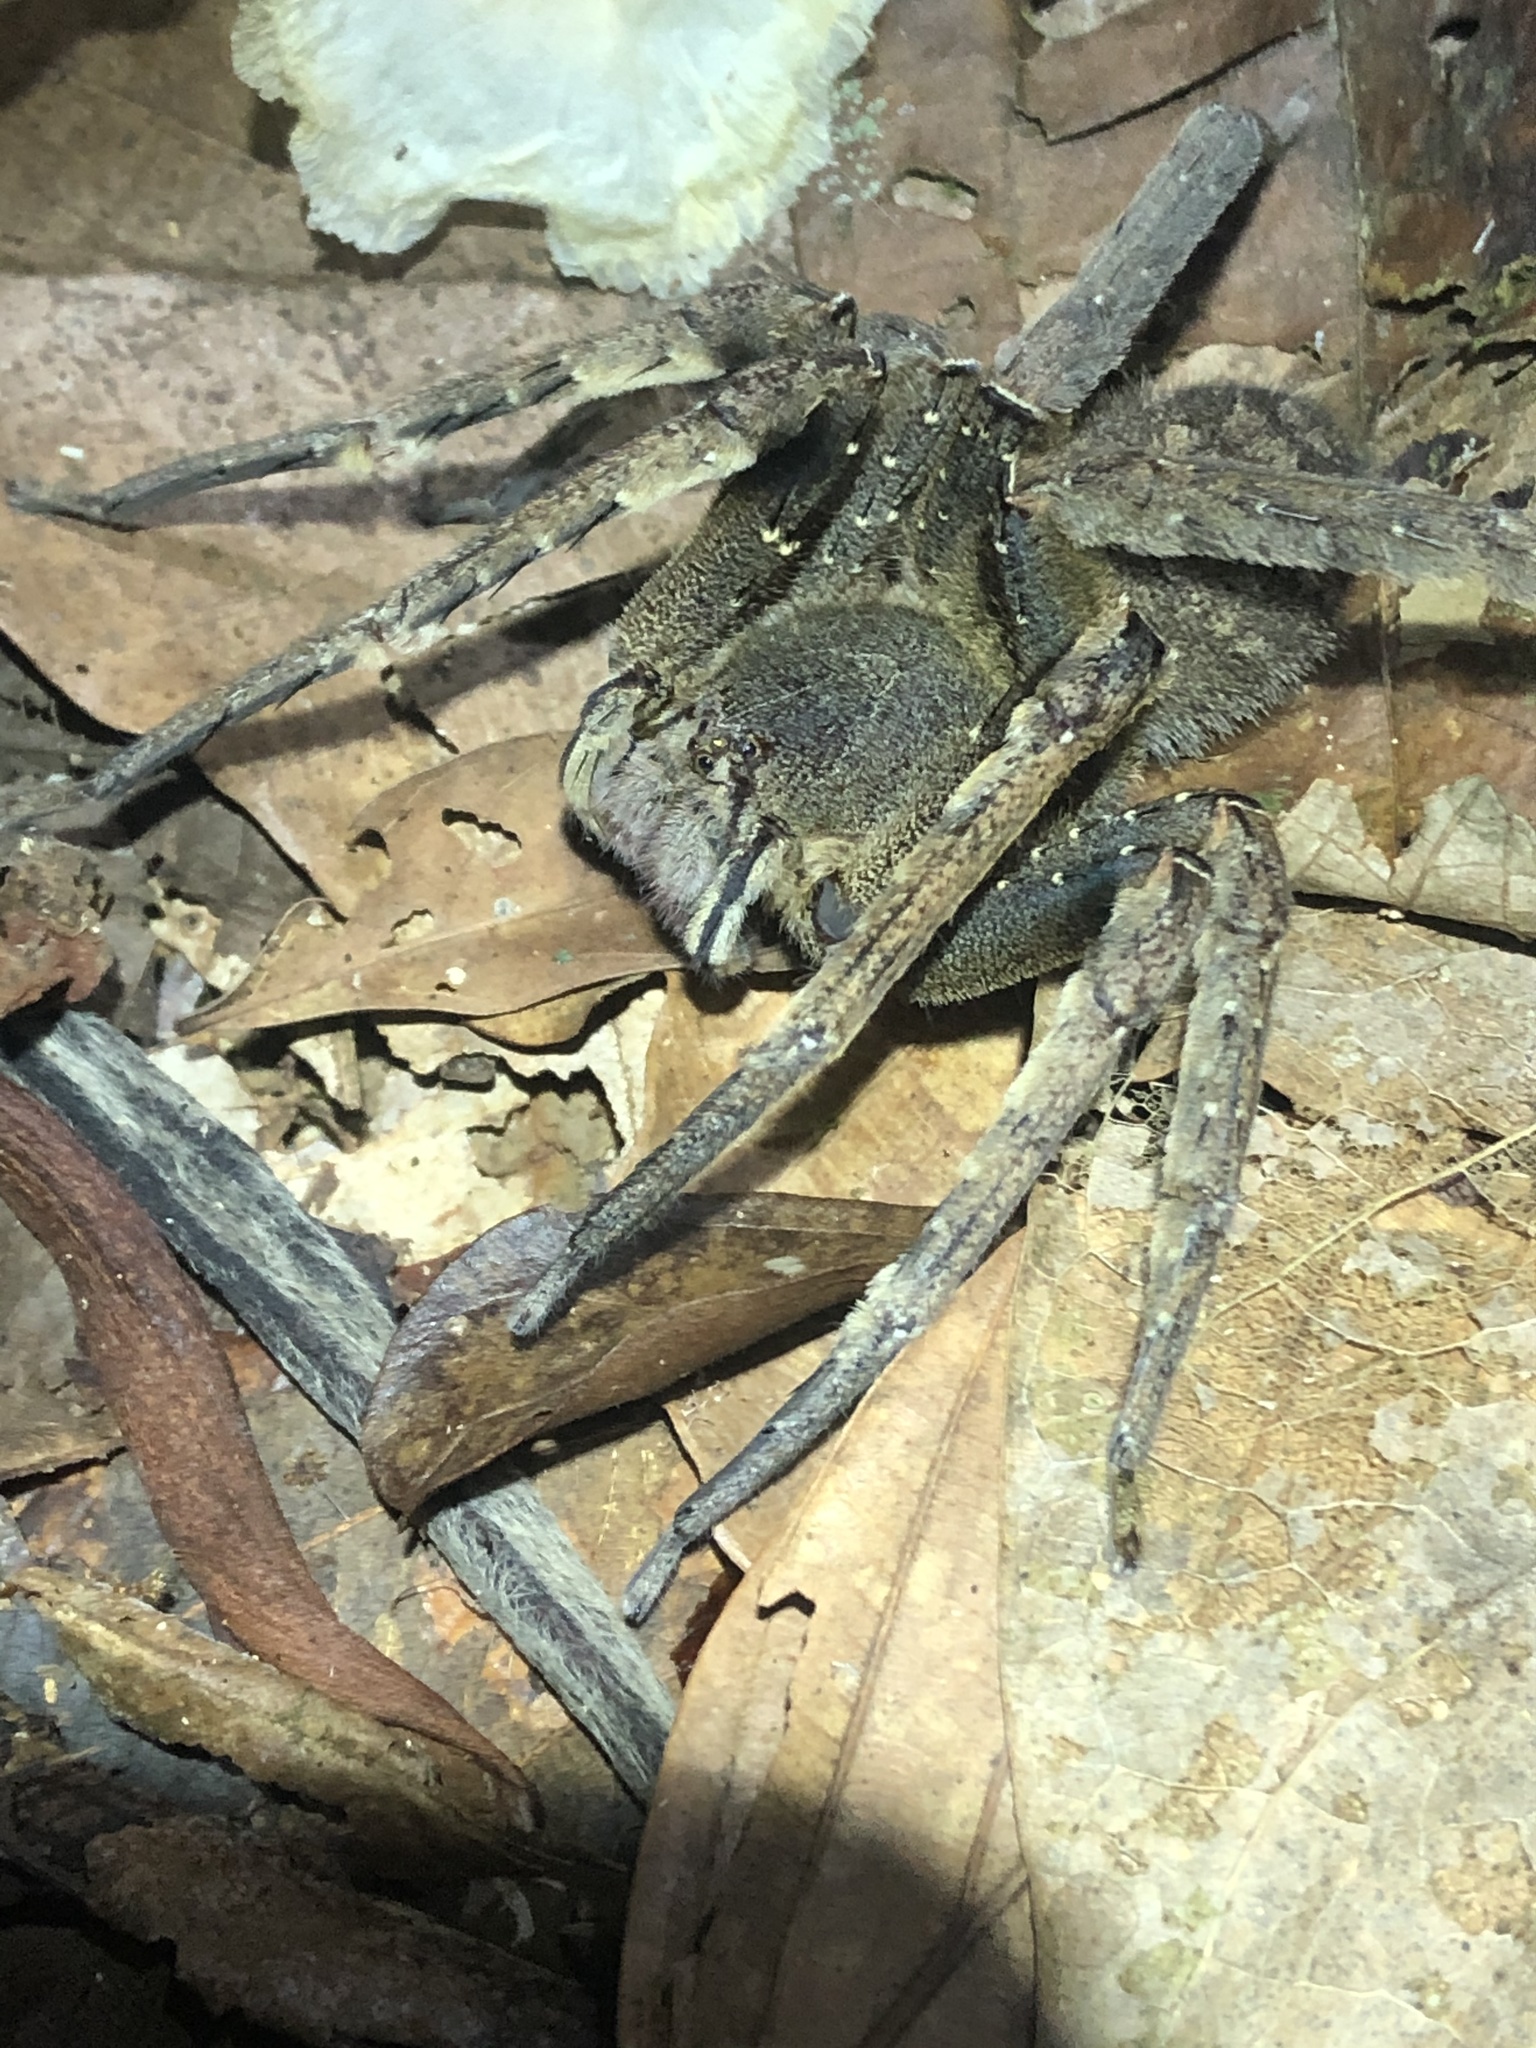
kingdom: Animalia
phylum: Arthropoda
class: Arachnida
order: Araneae
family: Ctenidae
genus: Phoneutria
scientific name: Phoneutria fera
